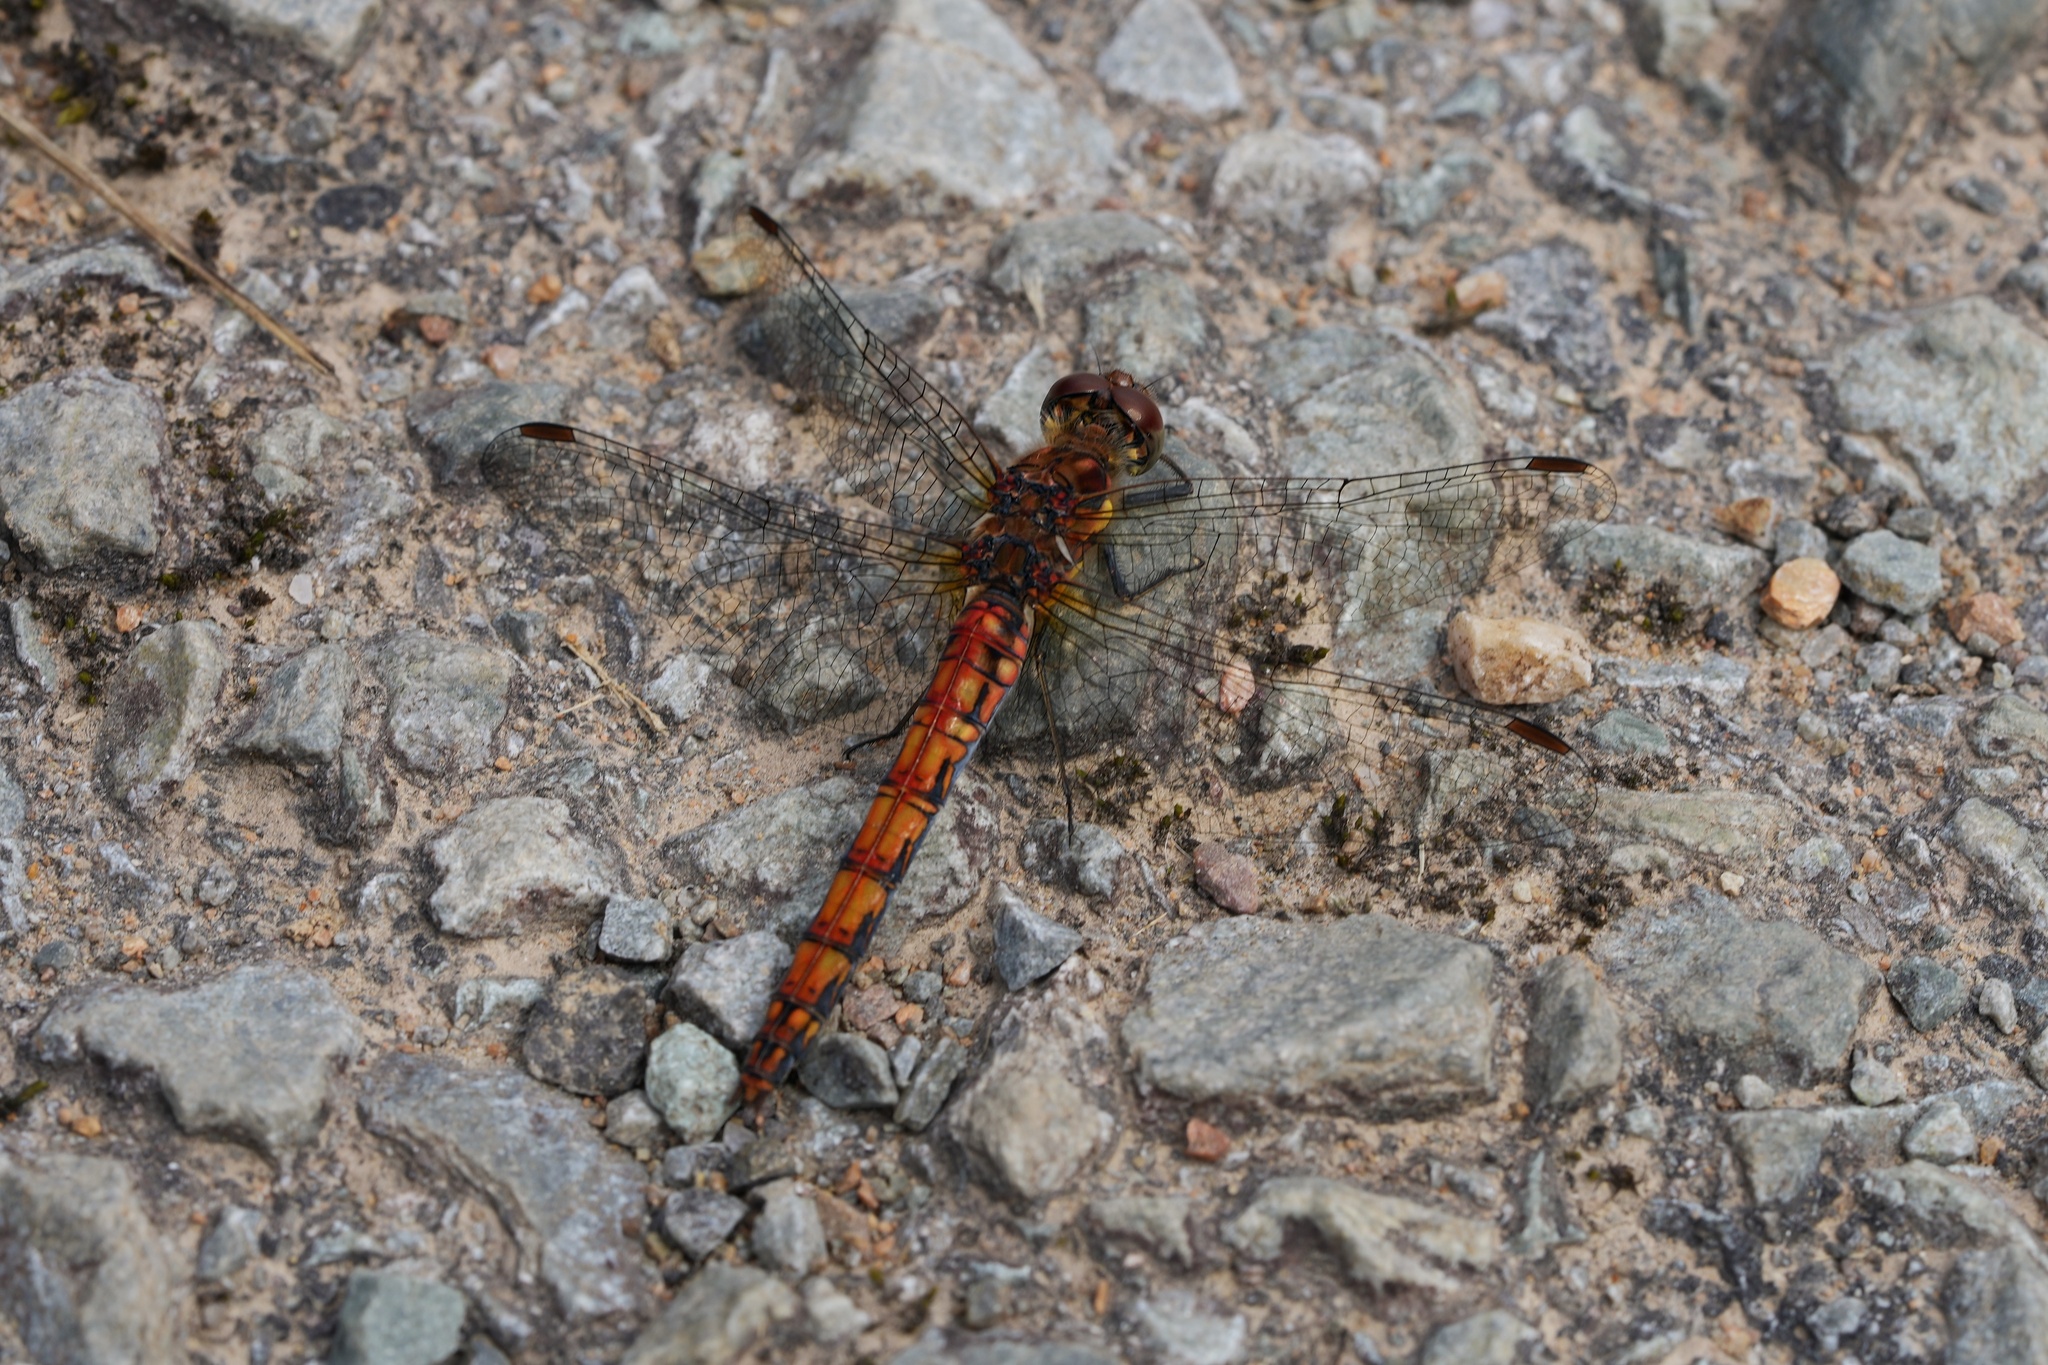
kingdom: Animalia
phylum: Arthropoda
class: Insecta
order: Odonata
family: Libellulidae
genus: Sympetrum
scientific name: Sympetrum striolatum
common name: Common darter
